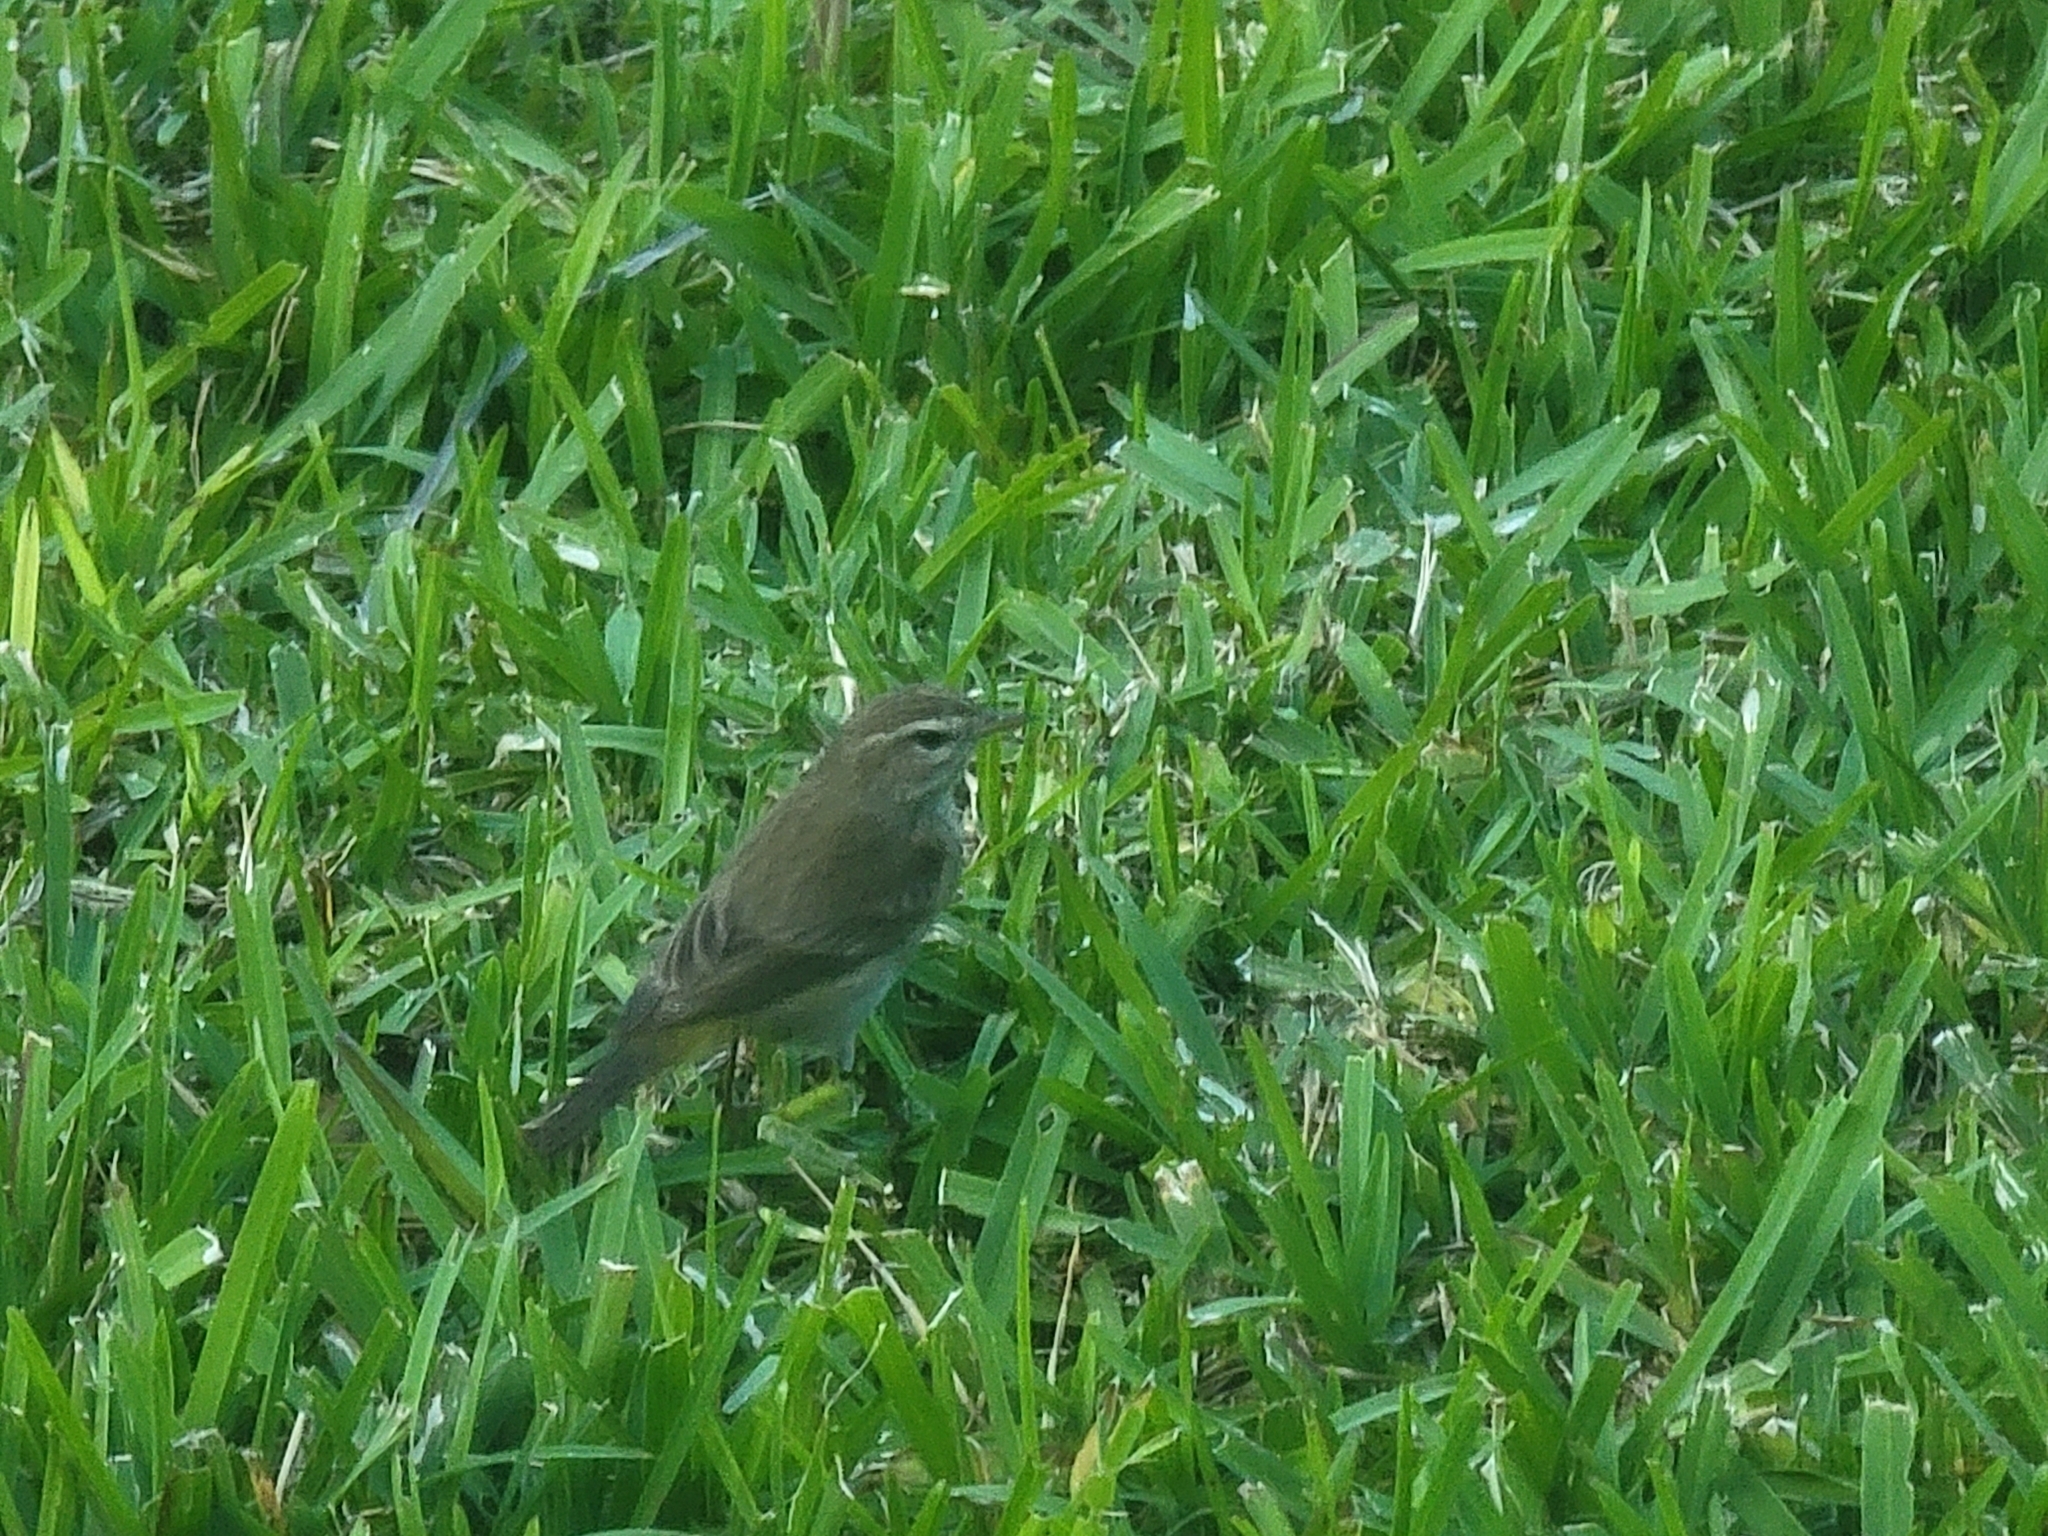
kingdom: Animalia
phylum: Chordata
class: Aves
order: Passeriformes
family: Parulidae
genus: Setophaga
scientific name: Setophaga palmarum
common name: Palm warbler
